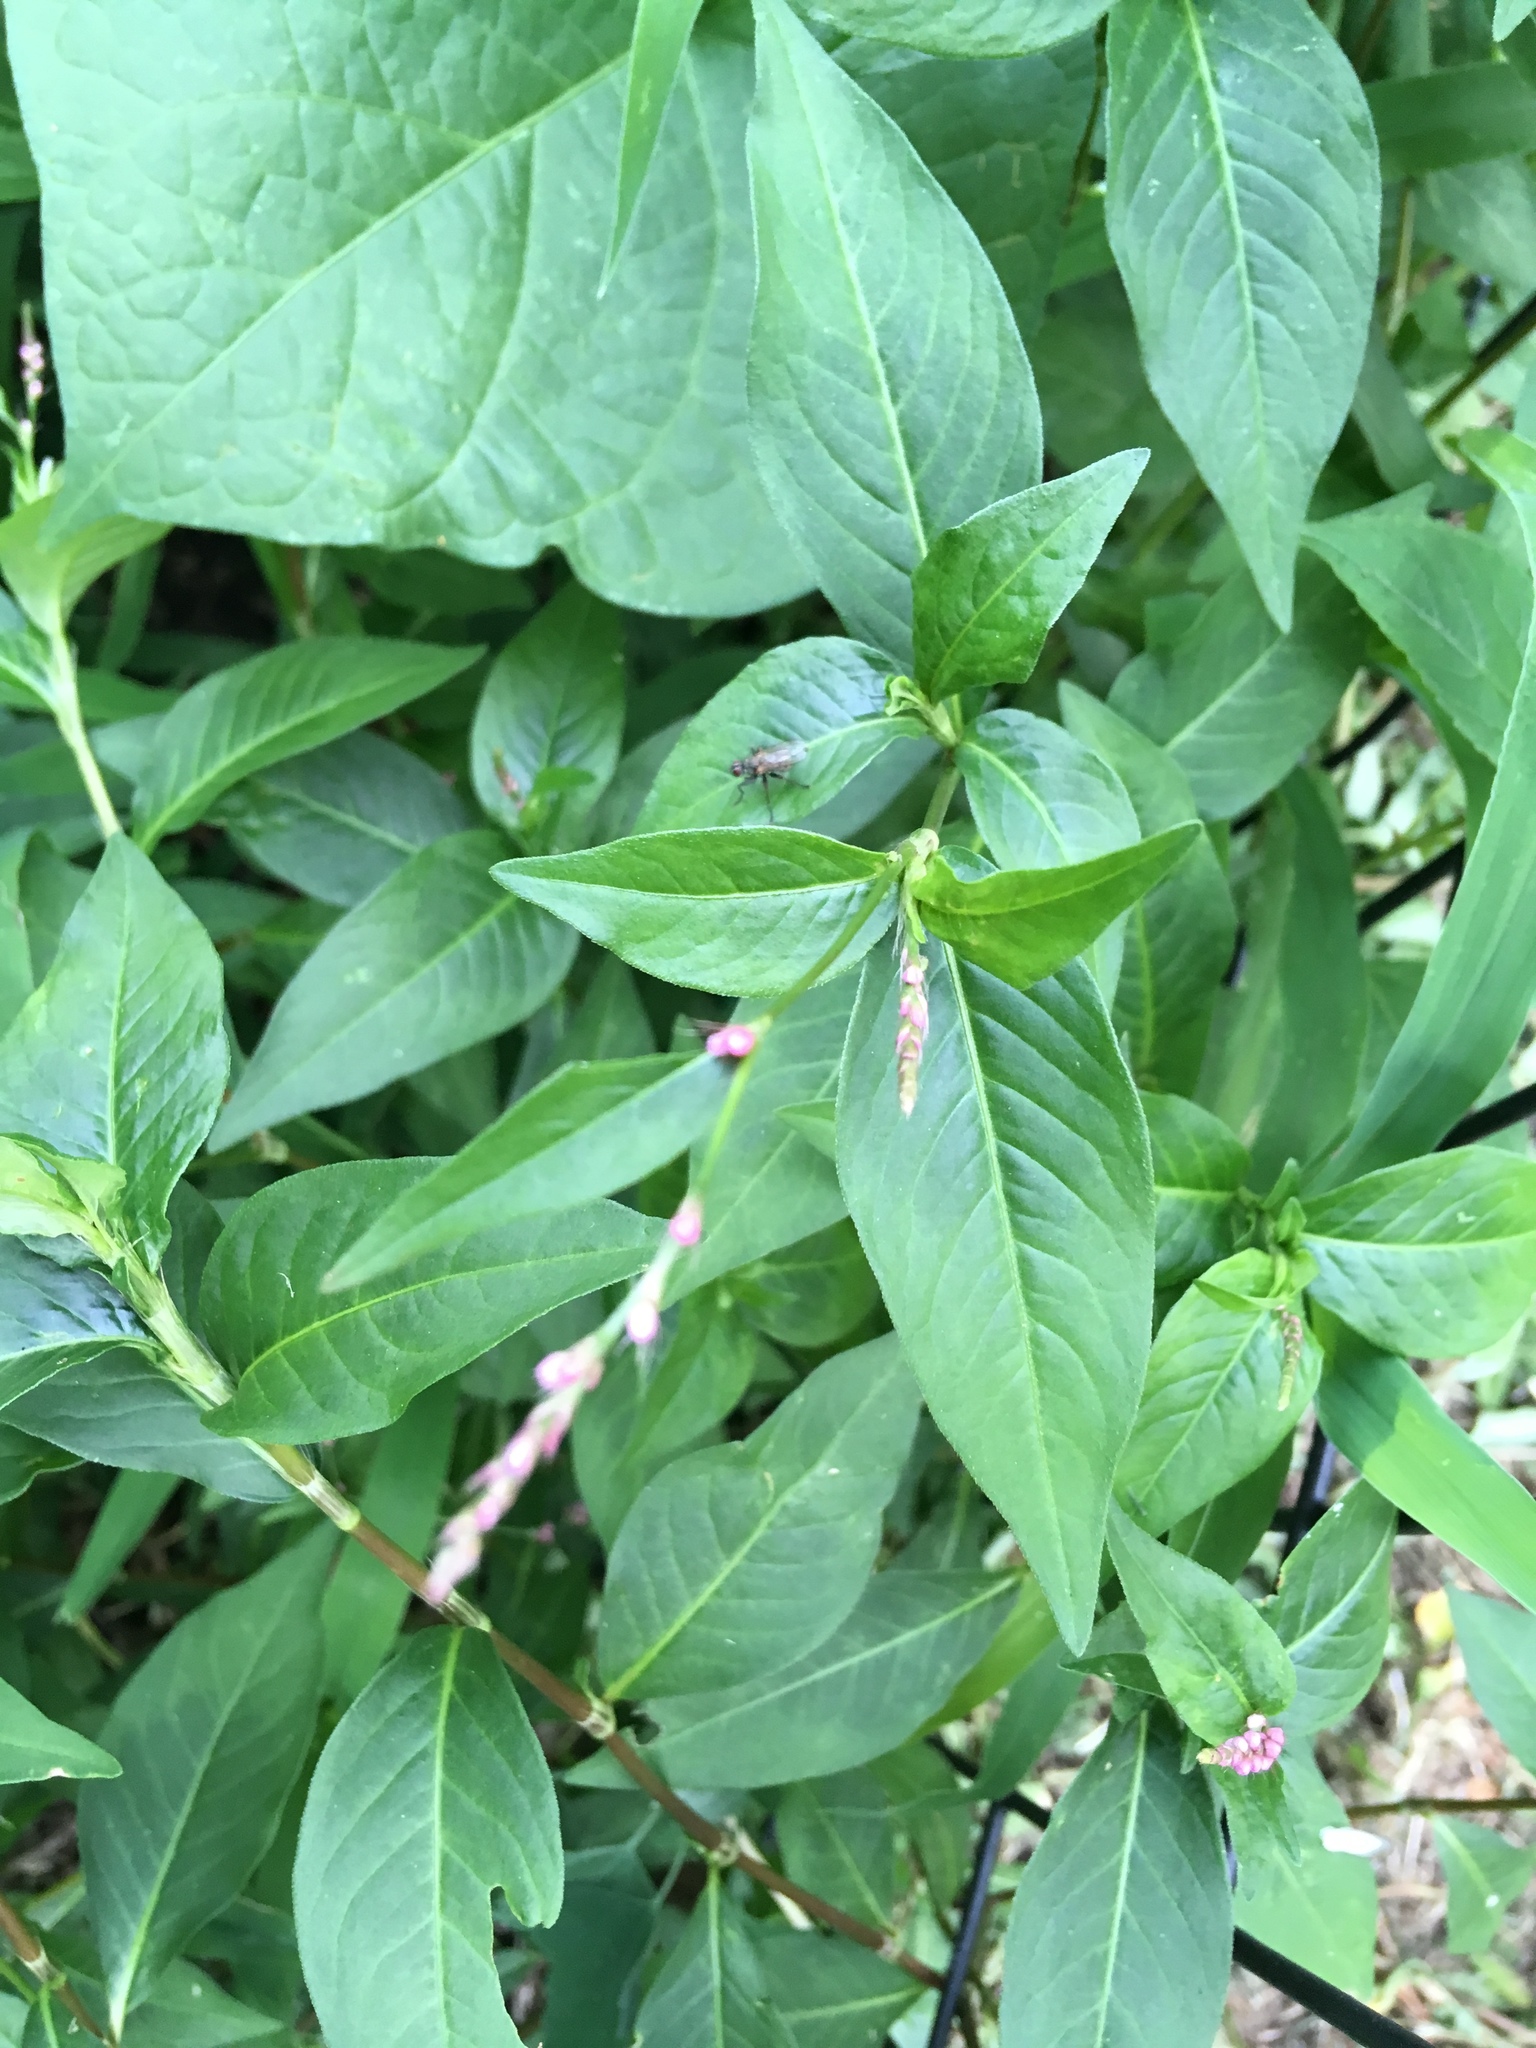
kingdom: Plantae
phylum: Tracheophyta
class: Magnoliopsida
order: Caryophyllales
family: Polygonaceae
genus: Persicaria
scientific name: Persicaria longiseta
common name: Bristly lady's-thumb
